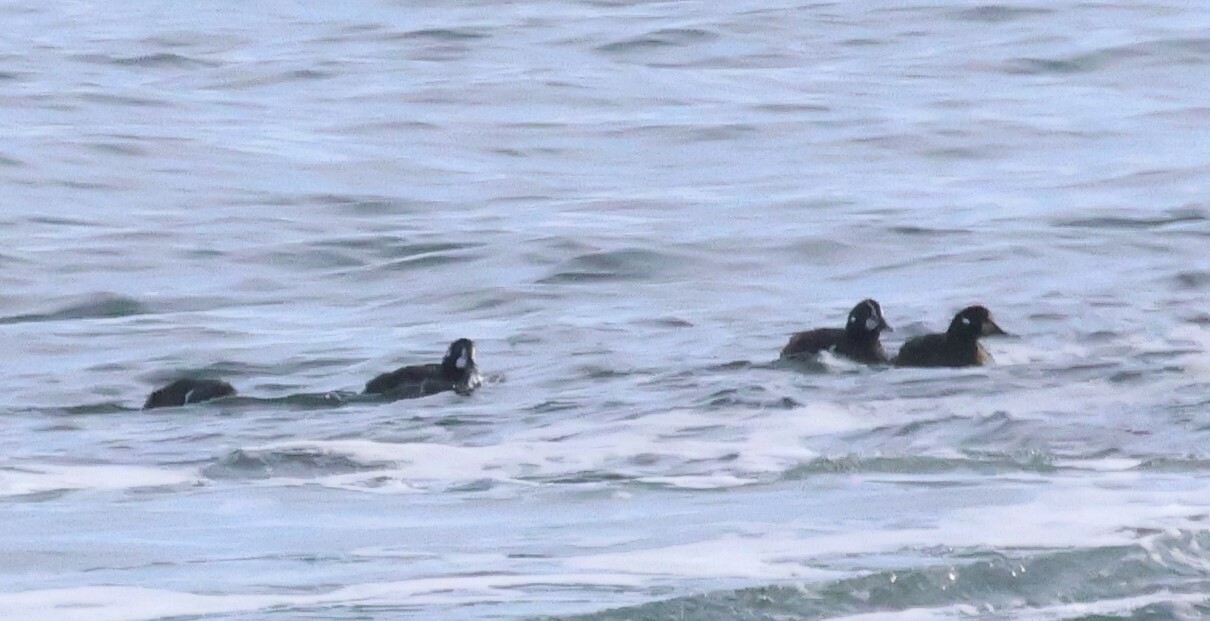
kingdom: Animalia
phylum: Chordata
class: Aves
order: Anseriformes
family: Anatidae
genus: Histrionicus
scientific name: Histrionicus histrionicus
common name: Harlequin duck
